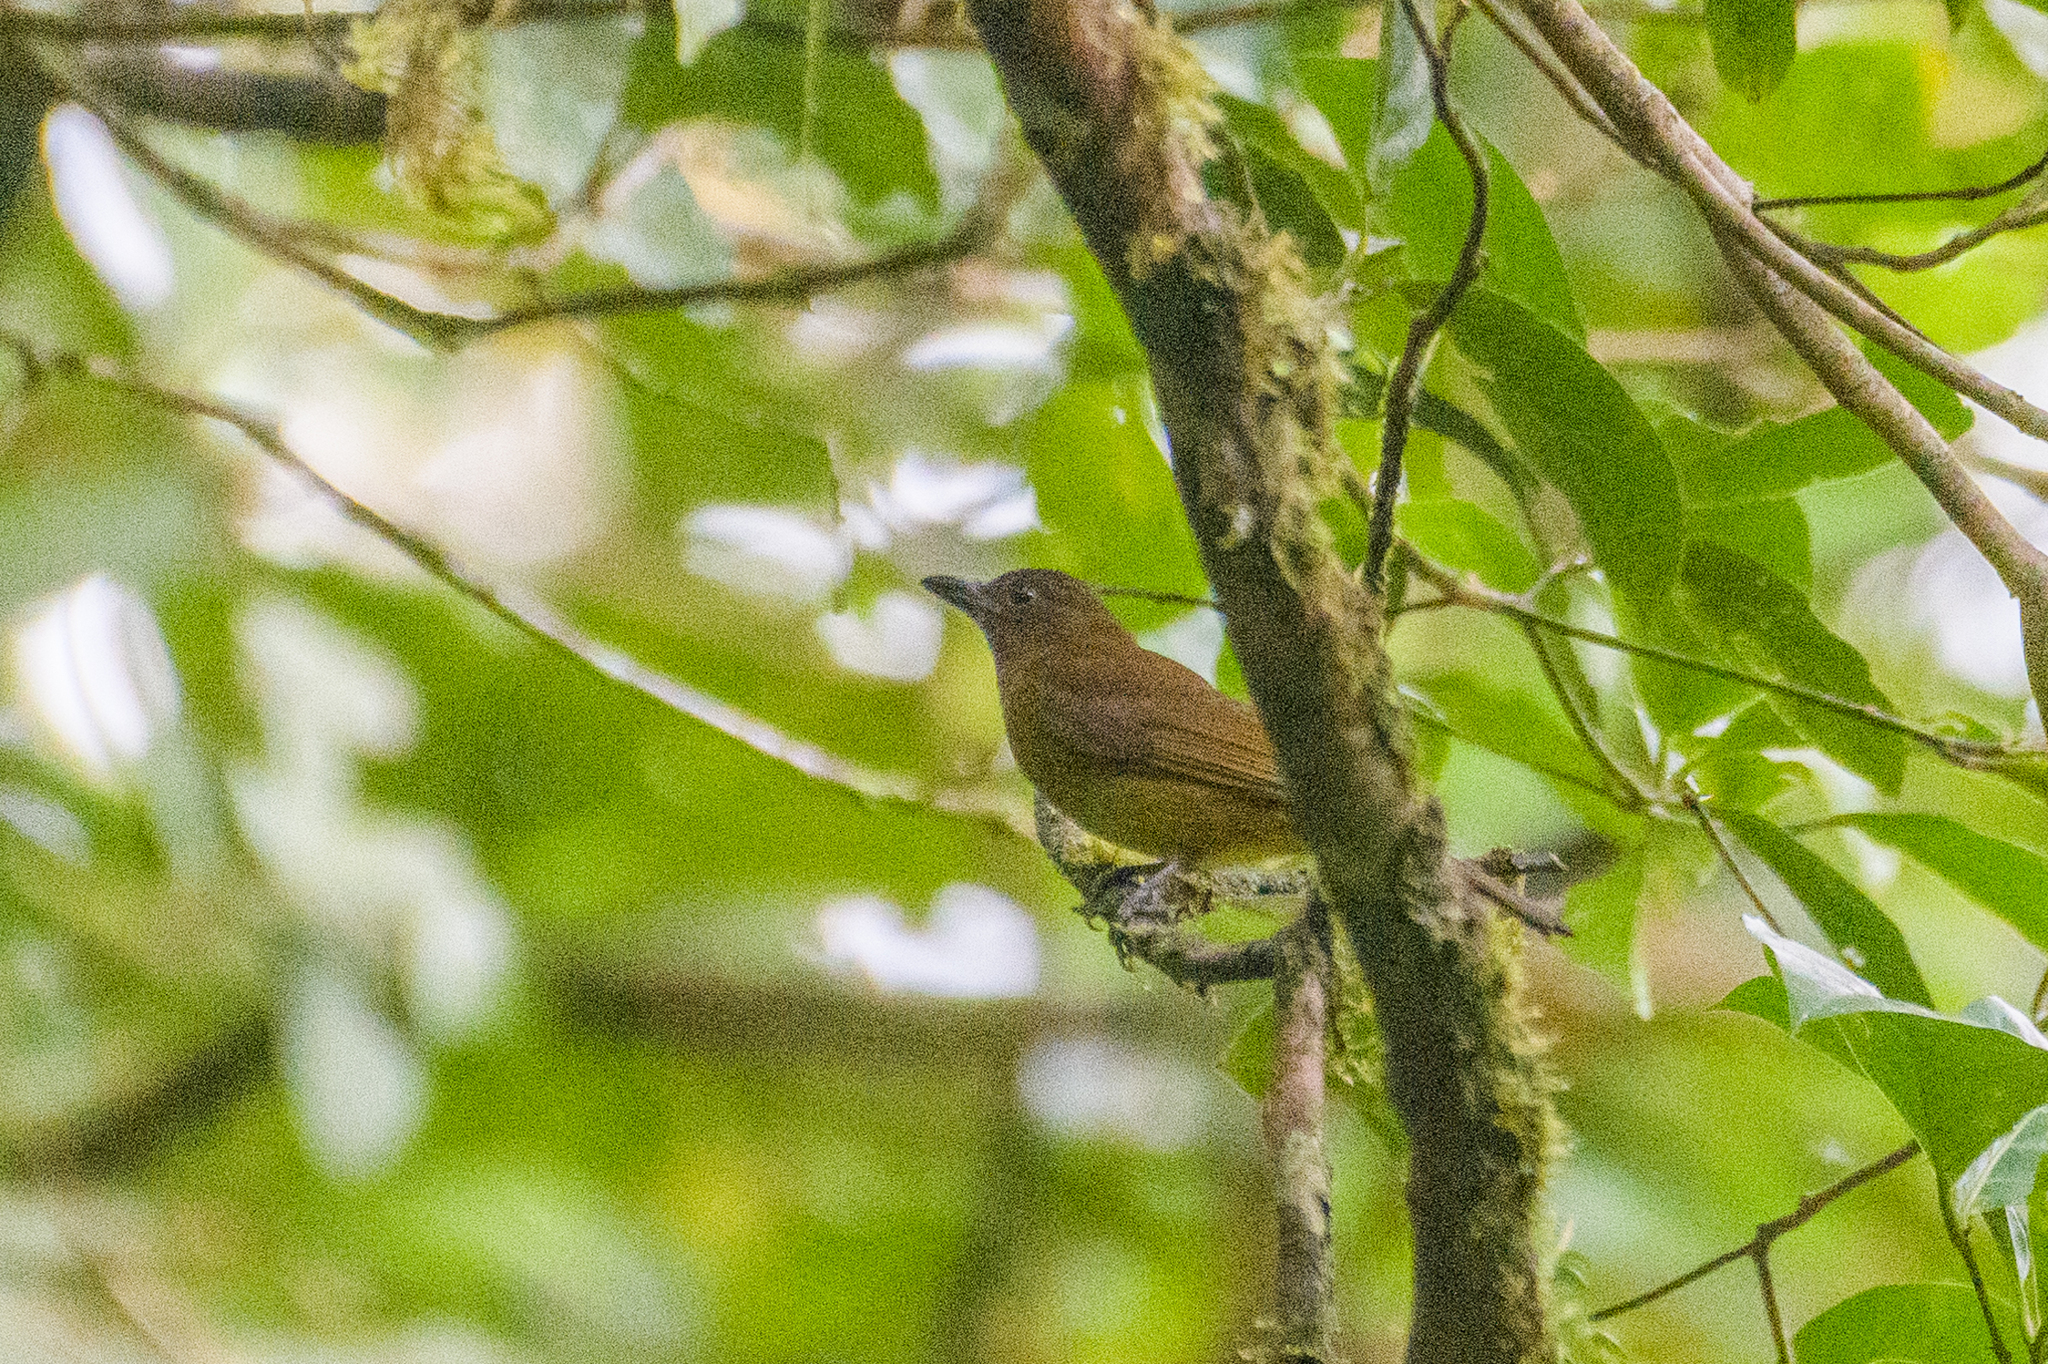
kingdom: Animalia
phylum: Chordata
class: Aves
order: Passeriformes
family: Thraupidae
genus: Lanio
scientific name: Lanio leucothorax
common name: White-throated shrike-tanager
